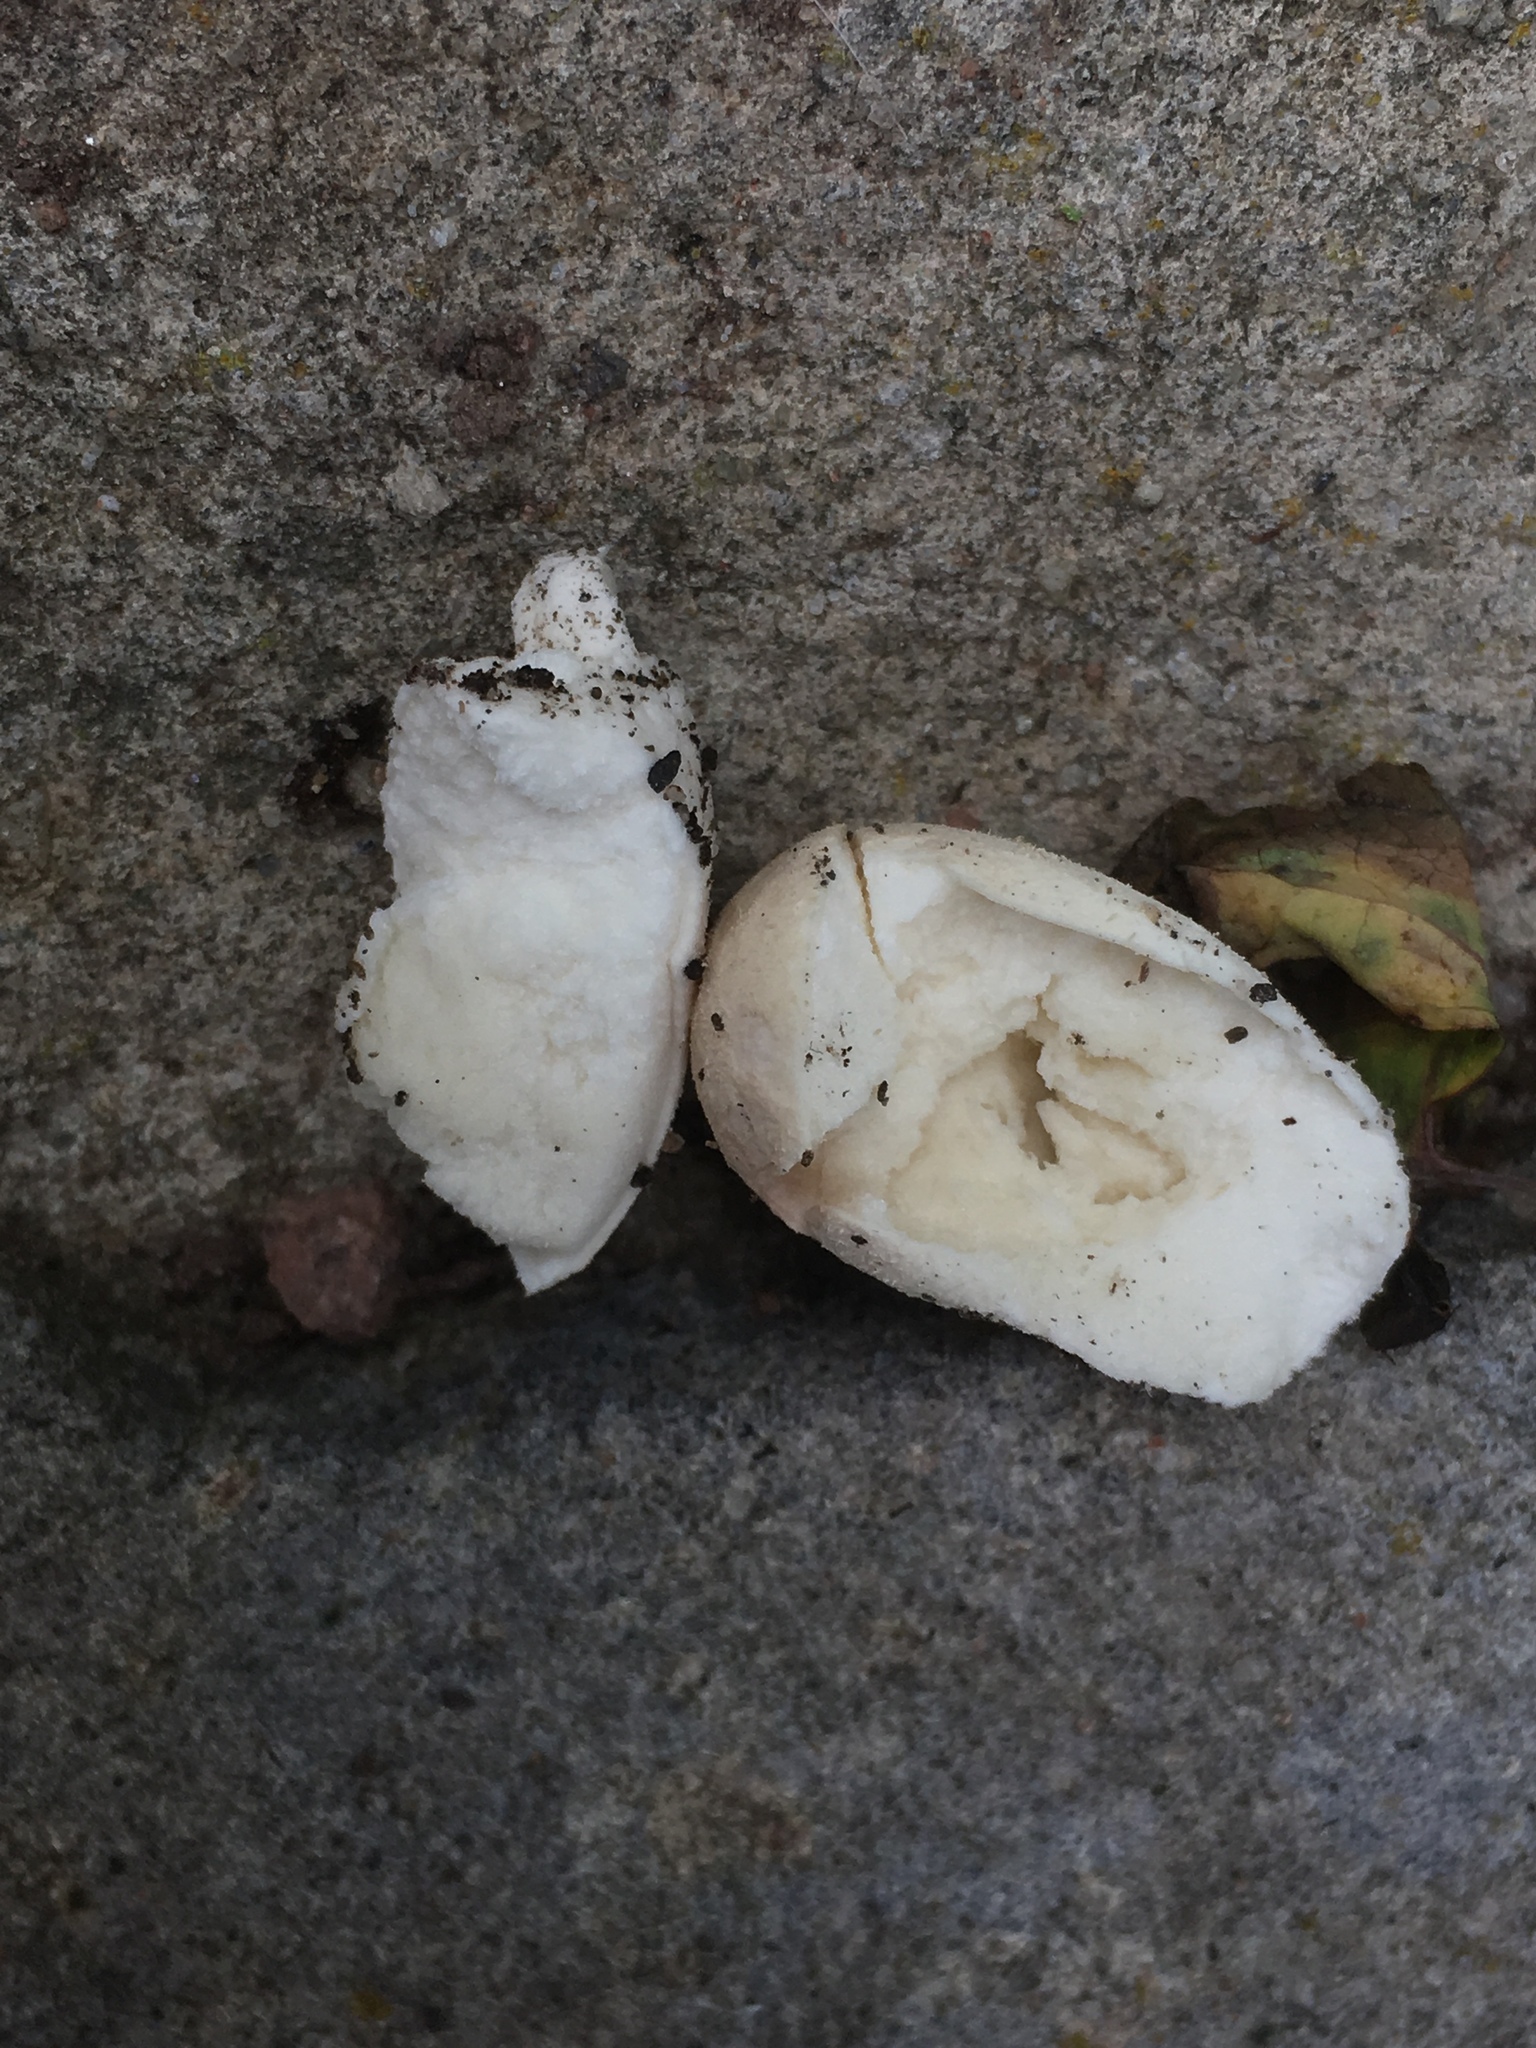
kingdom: Fungi
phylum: Basidiomycota
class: Agaricomycetes
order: Agaricales
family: Agaricaceae
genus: Agaricus
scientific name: Agaricus campestris
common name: Field mushroom
